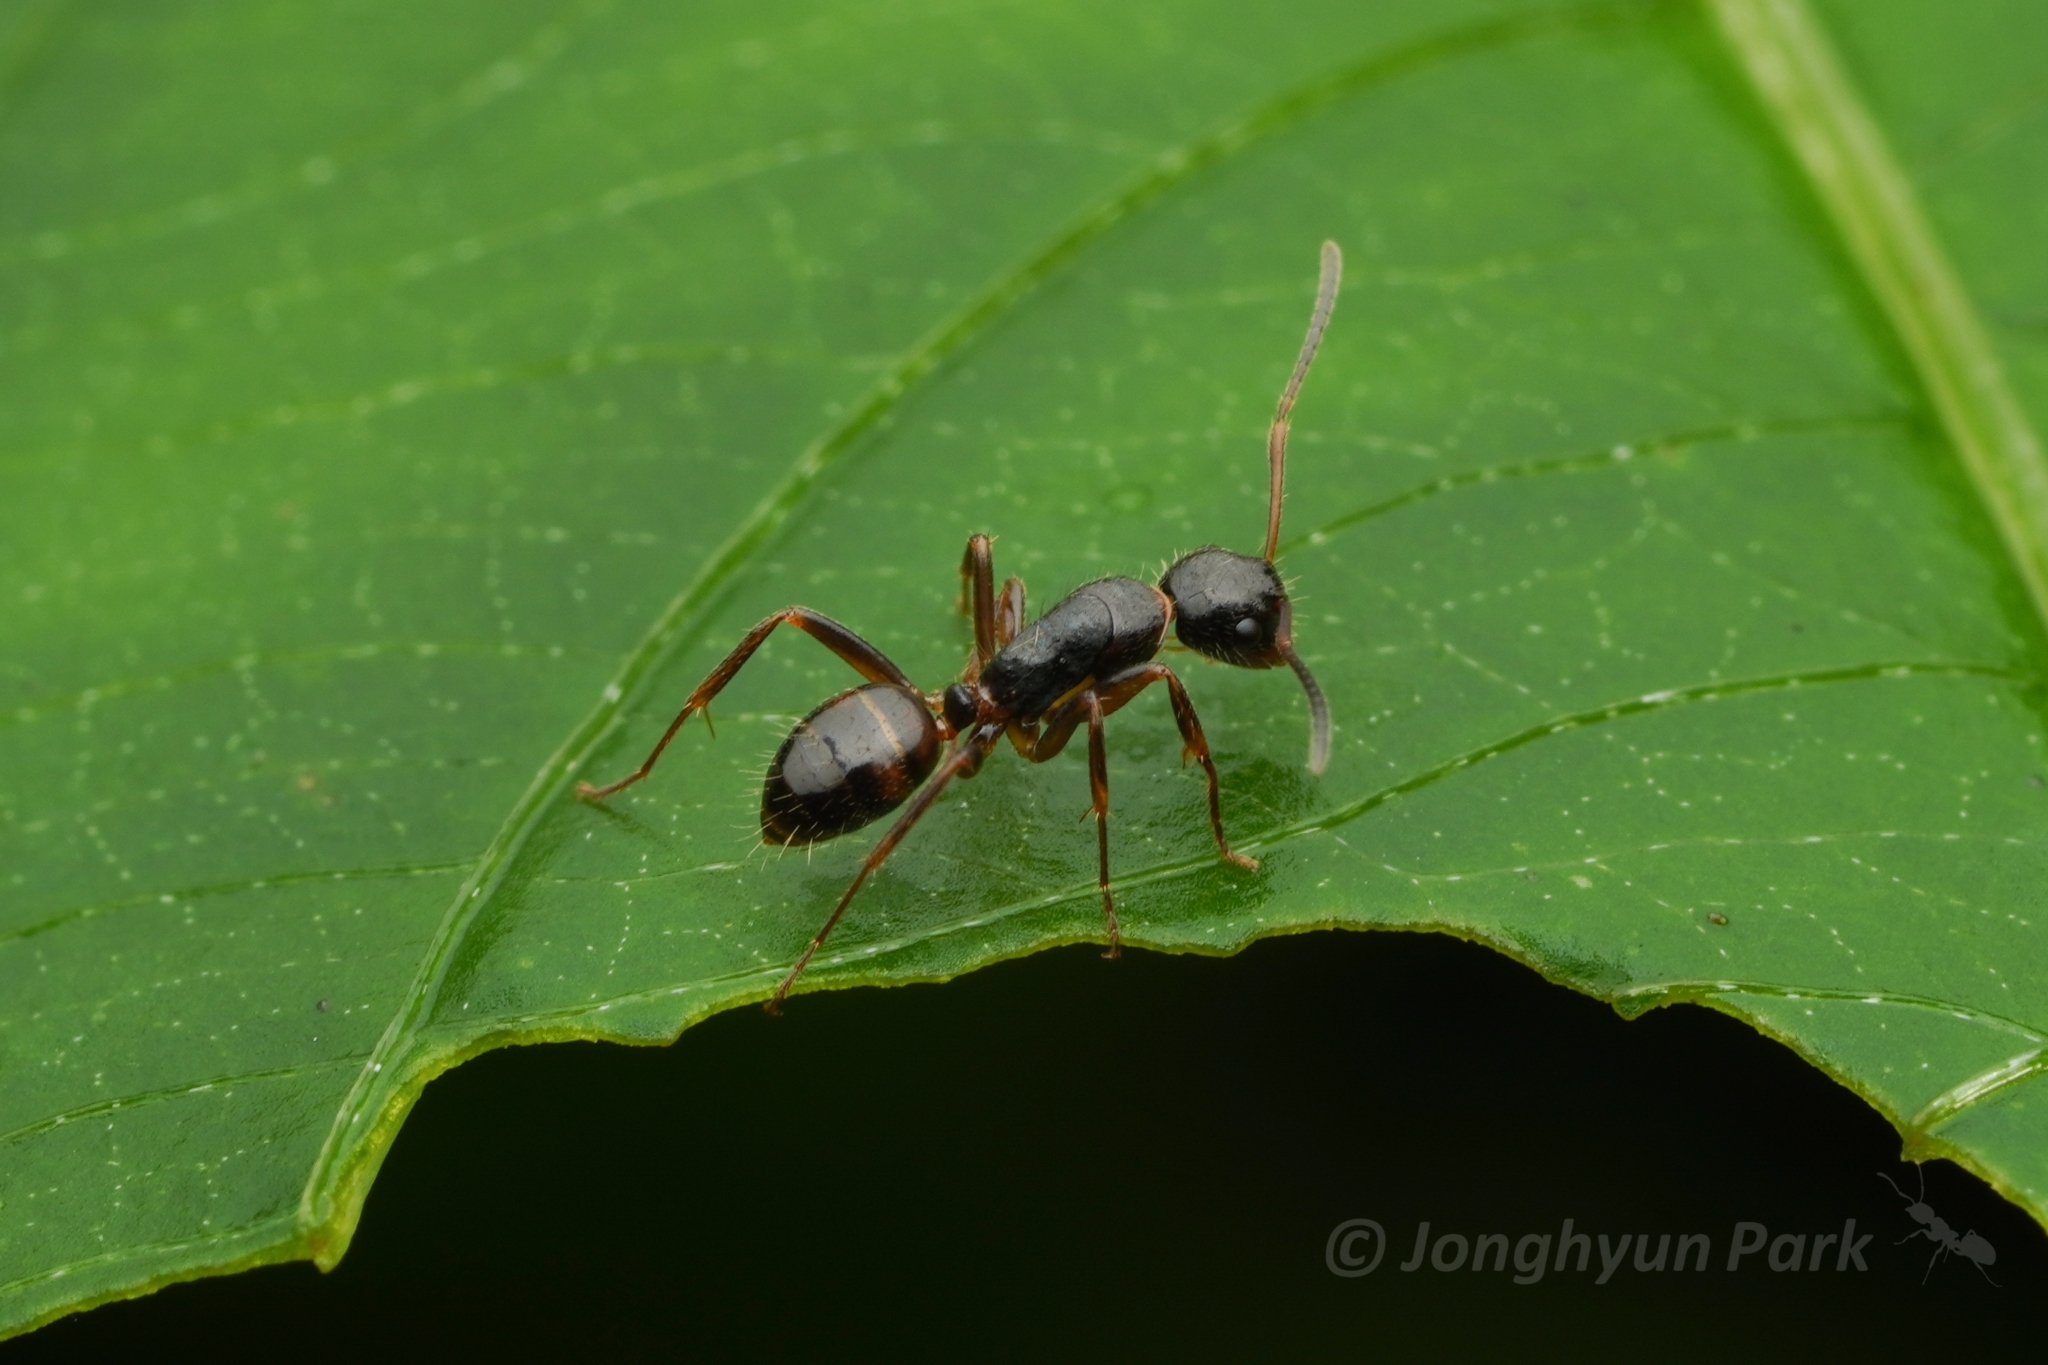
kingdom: Animalia
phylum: Arthropoda
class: Insecta
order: Hymenoptera
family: Formicidae
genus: Camponotus
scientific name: Camponotus nipponensis
